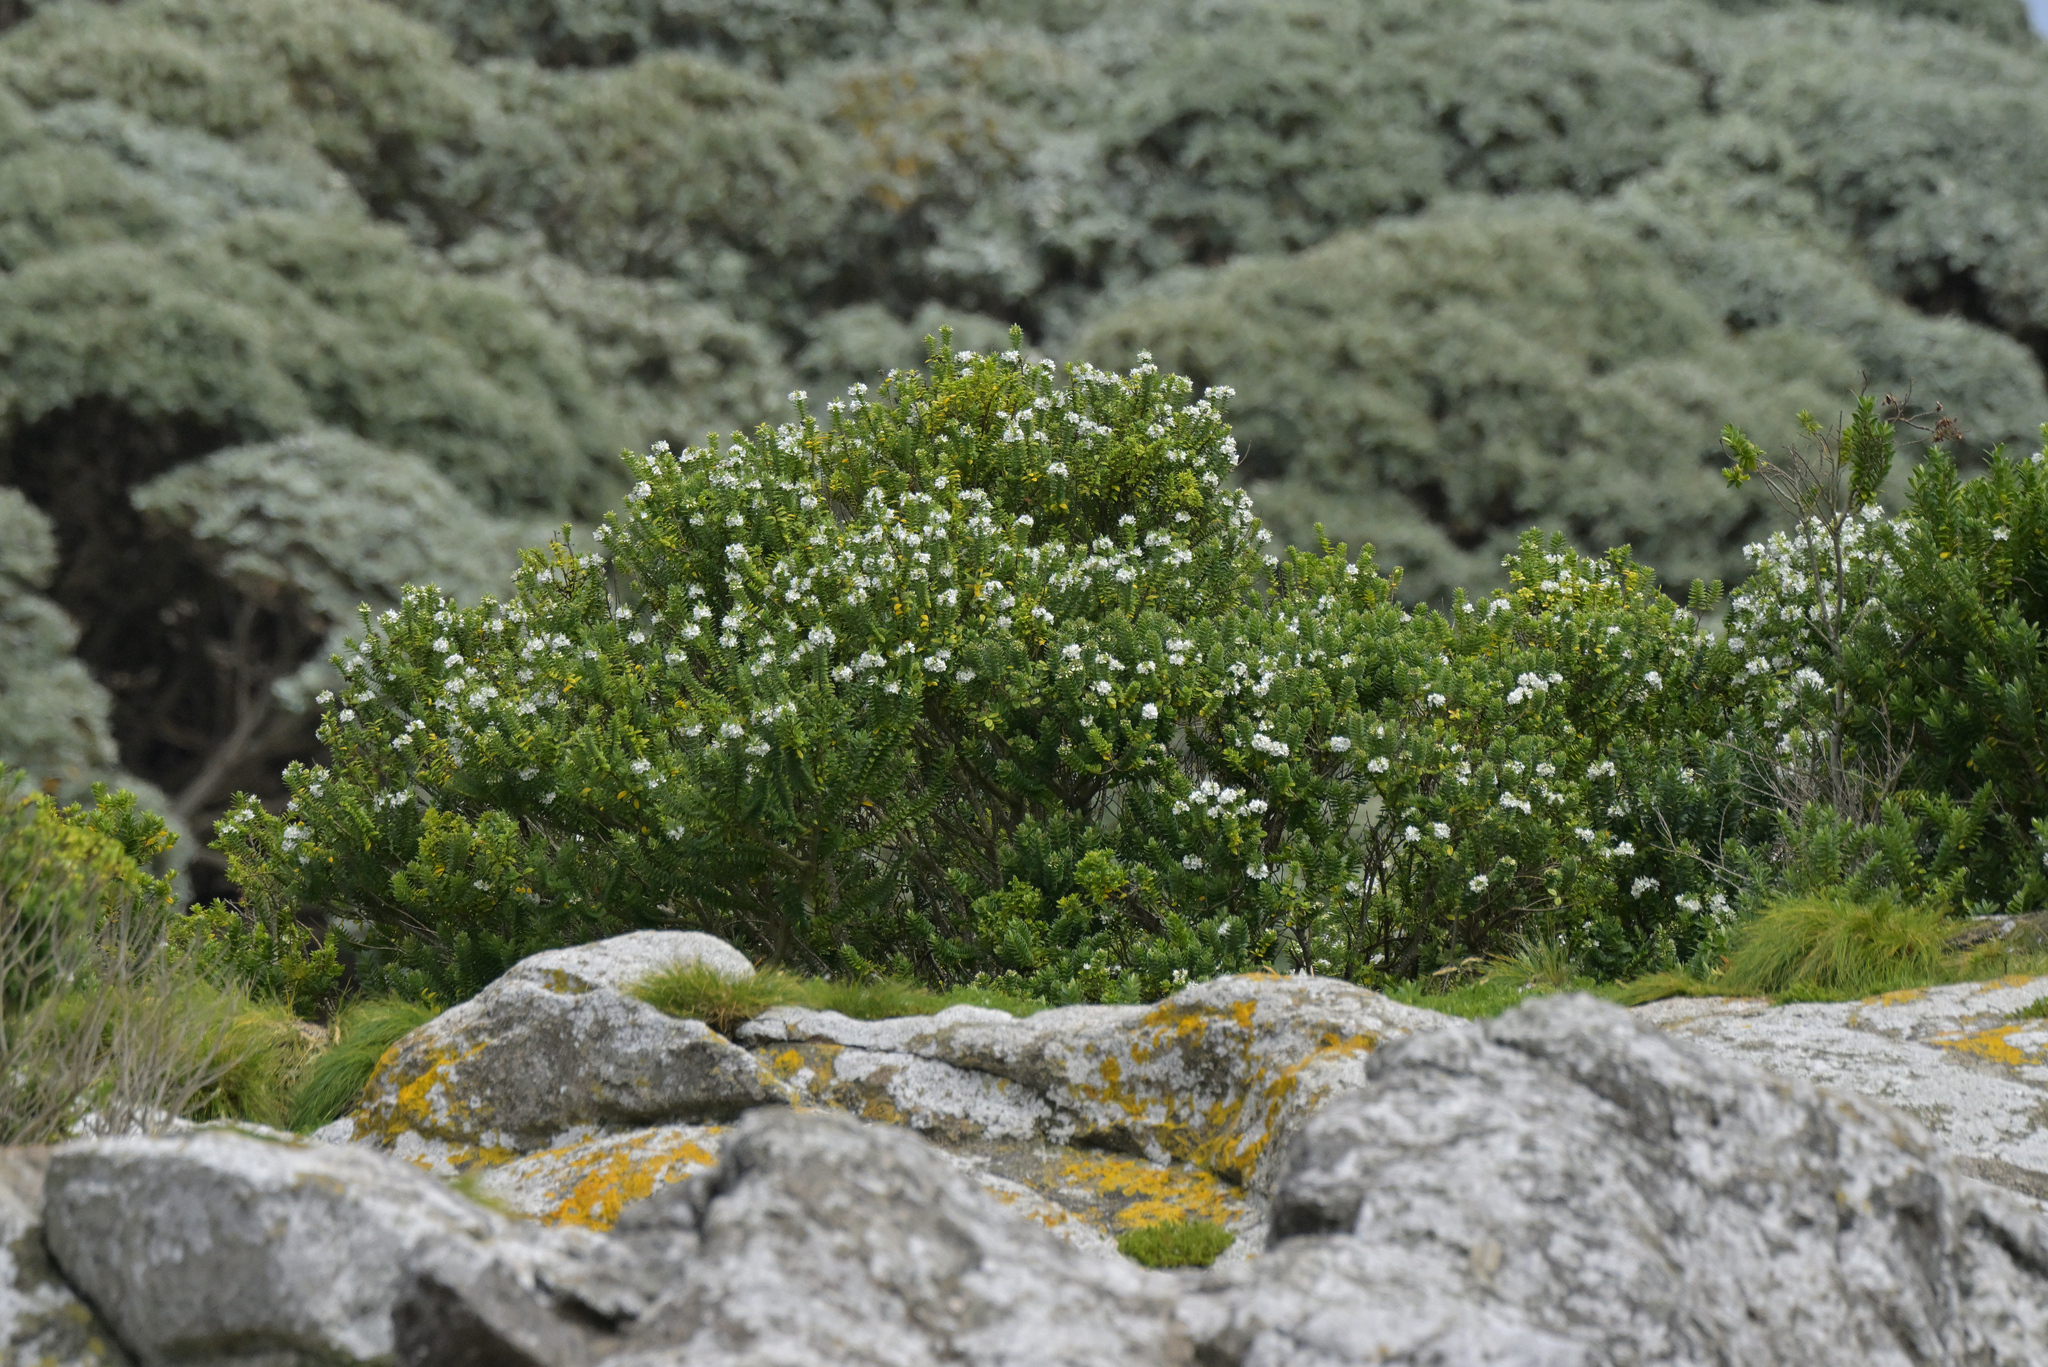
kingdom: Plantae
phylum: Tracheophyta
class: Magnoliopsida
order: Lamiales
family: Plantaginaceae
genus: Veronica
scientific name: Veronica elliptica
